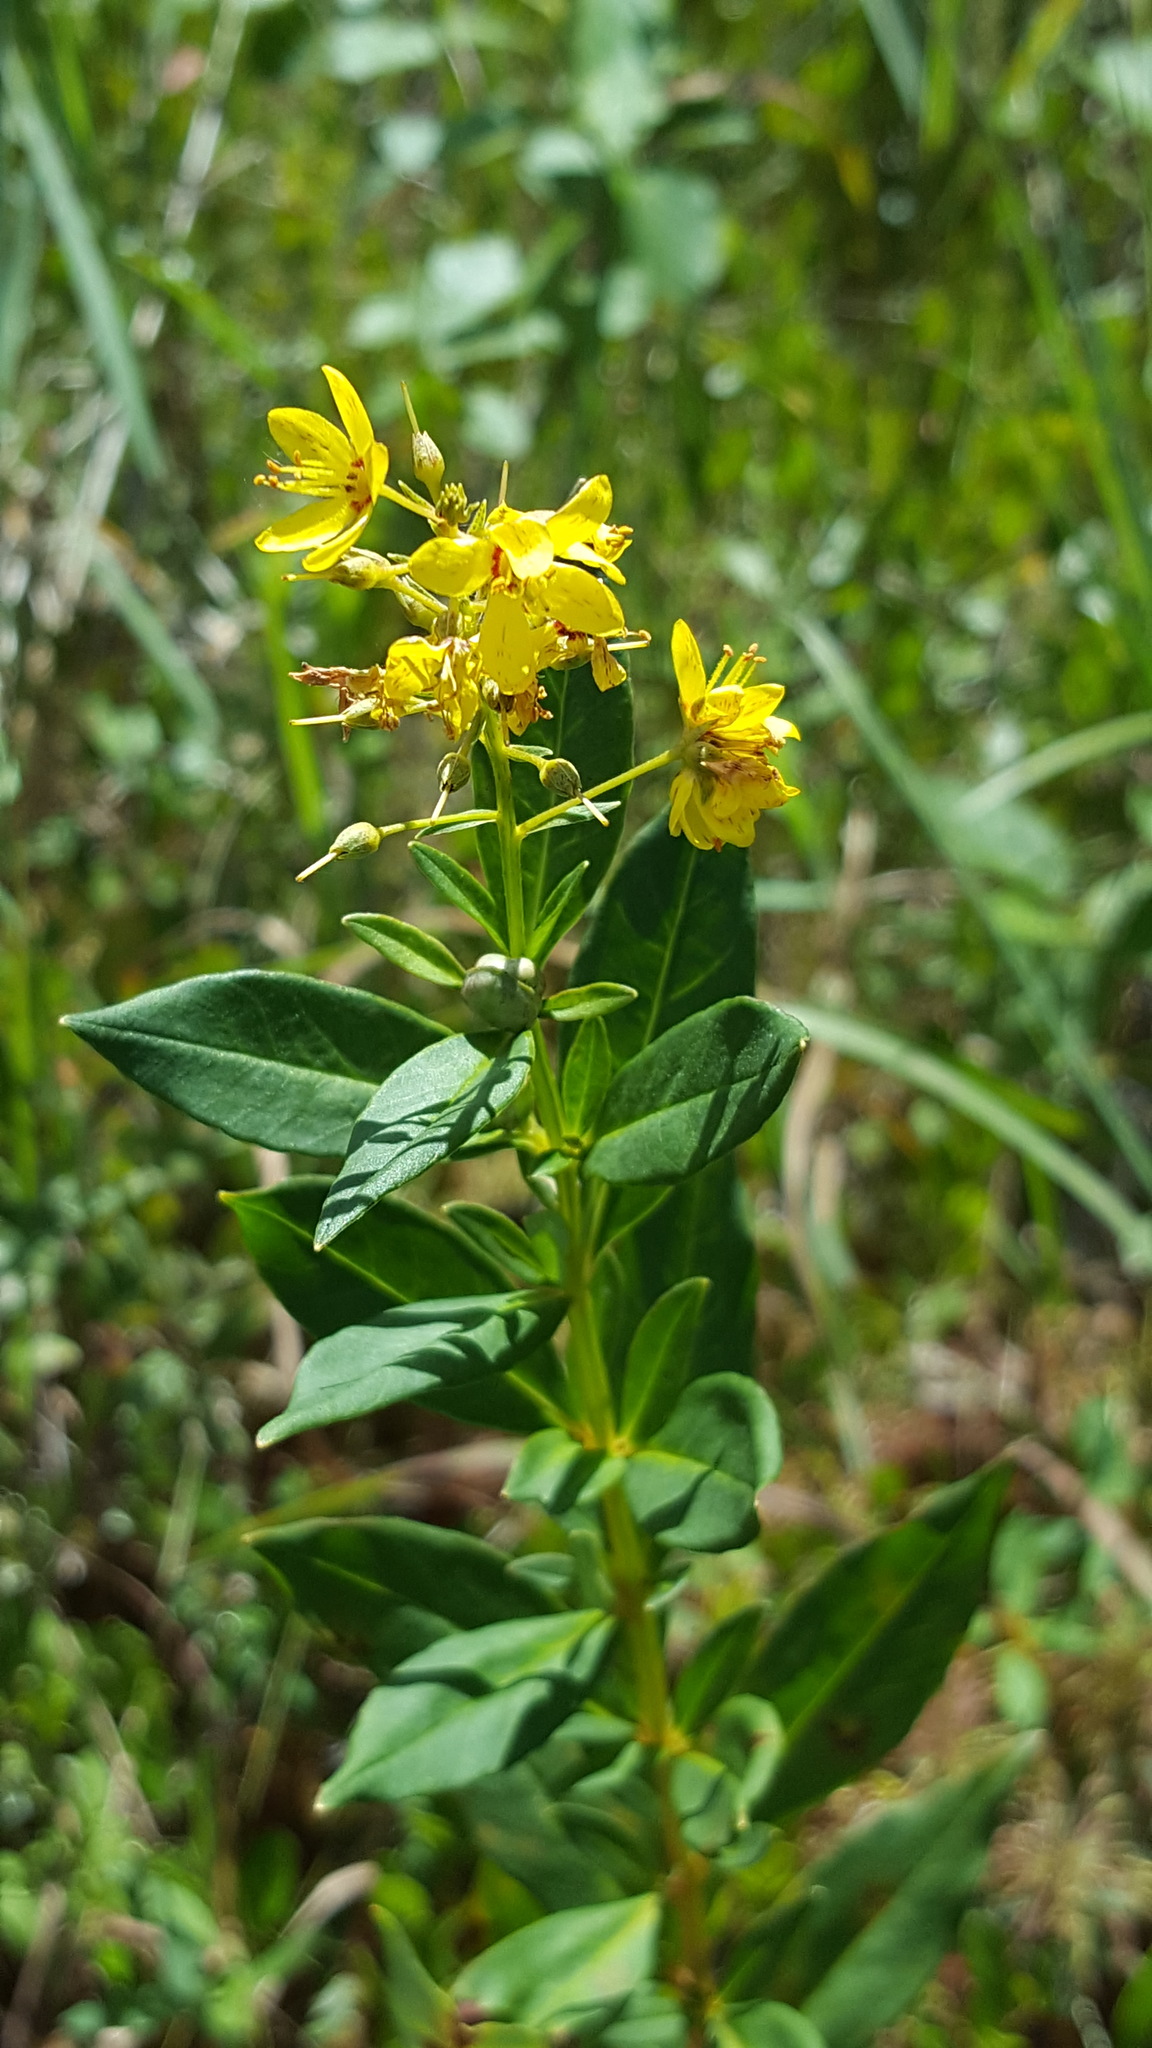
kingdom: Plantae
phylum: Tracheophyta
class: Magnoliopsida
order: Ericales
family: Primulaceae
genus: Lysimachia
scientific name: Lysimachia terrestris
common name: Lake loosestrife
